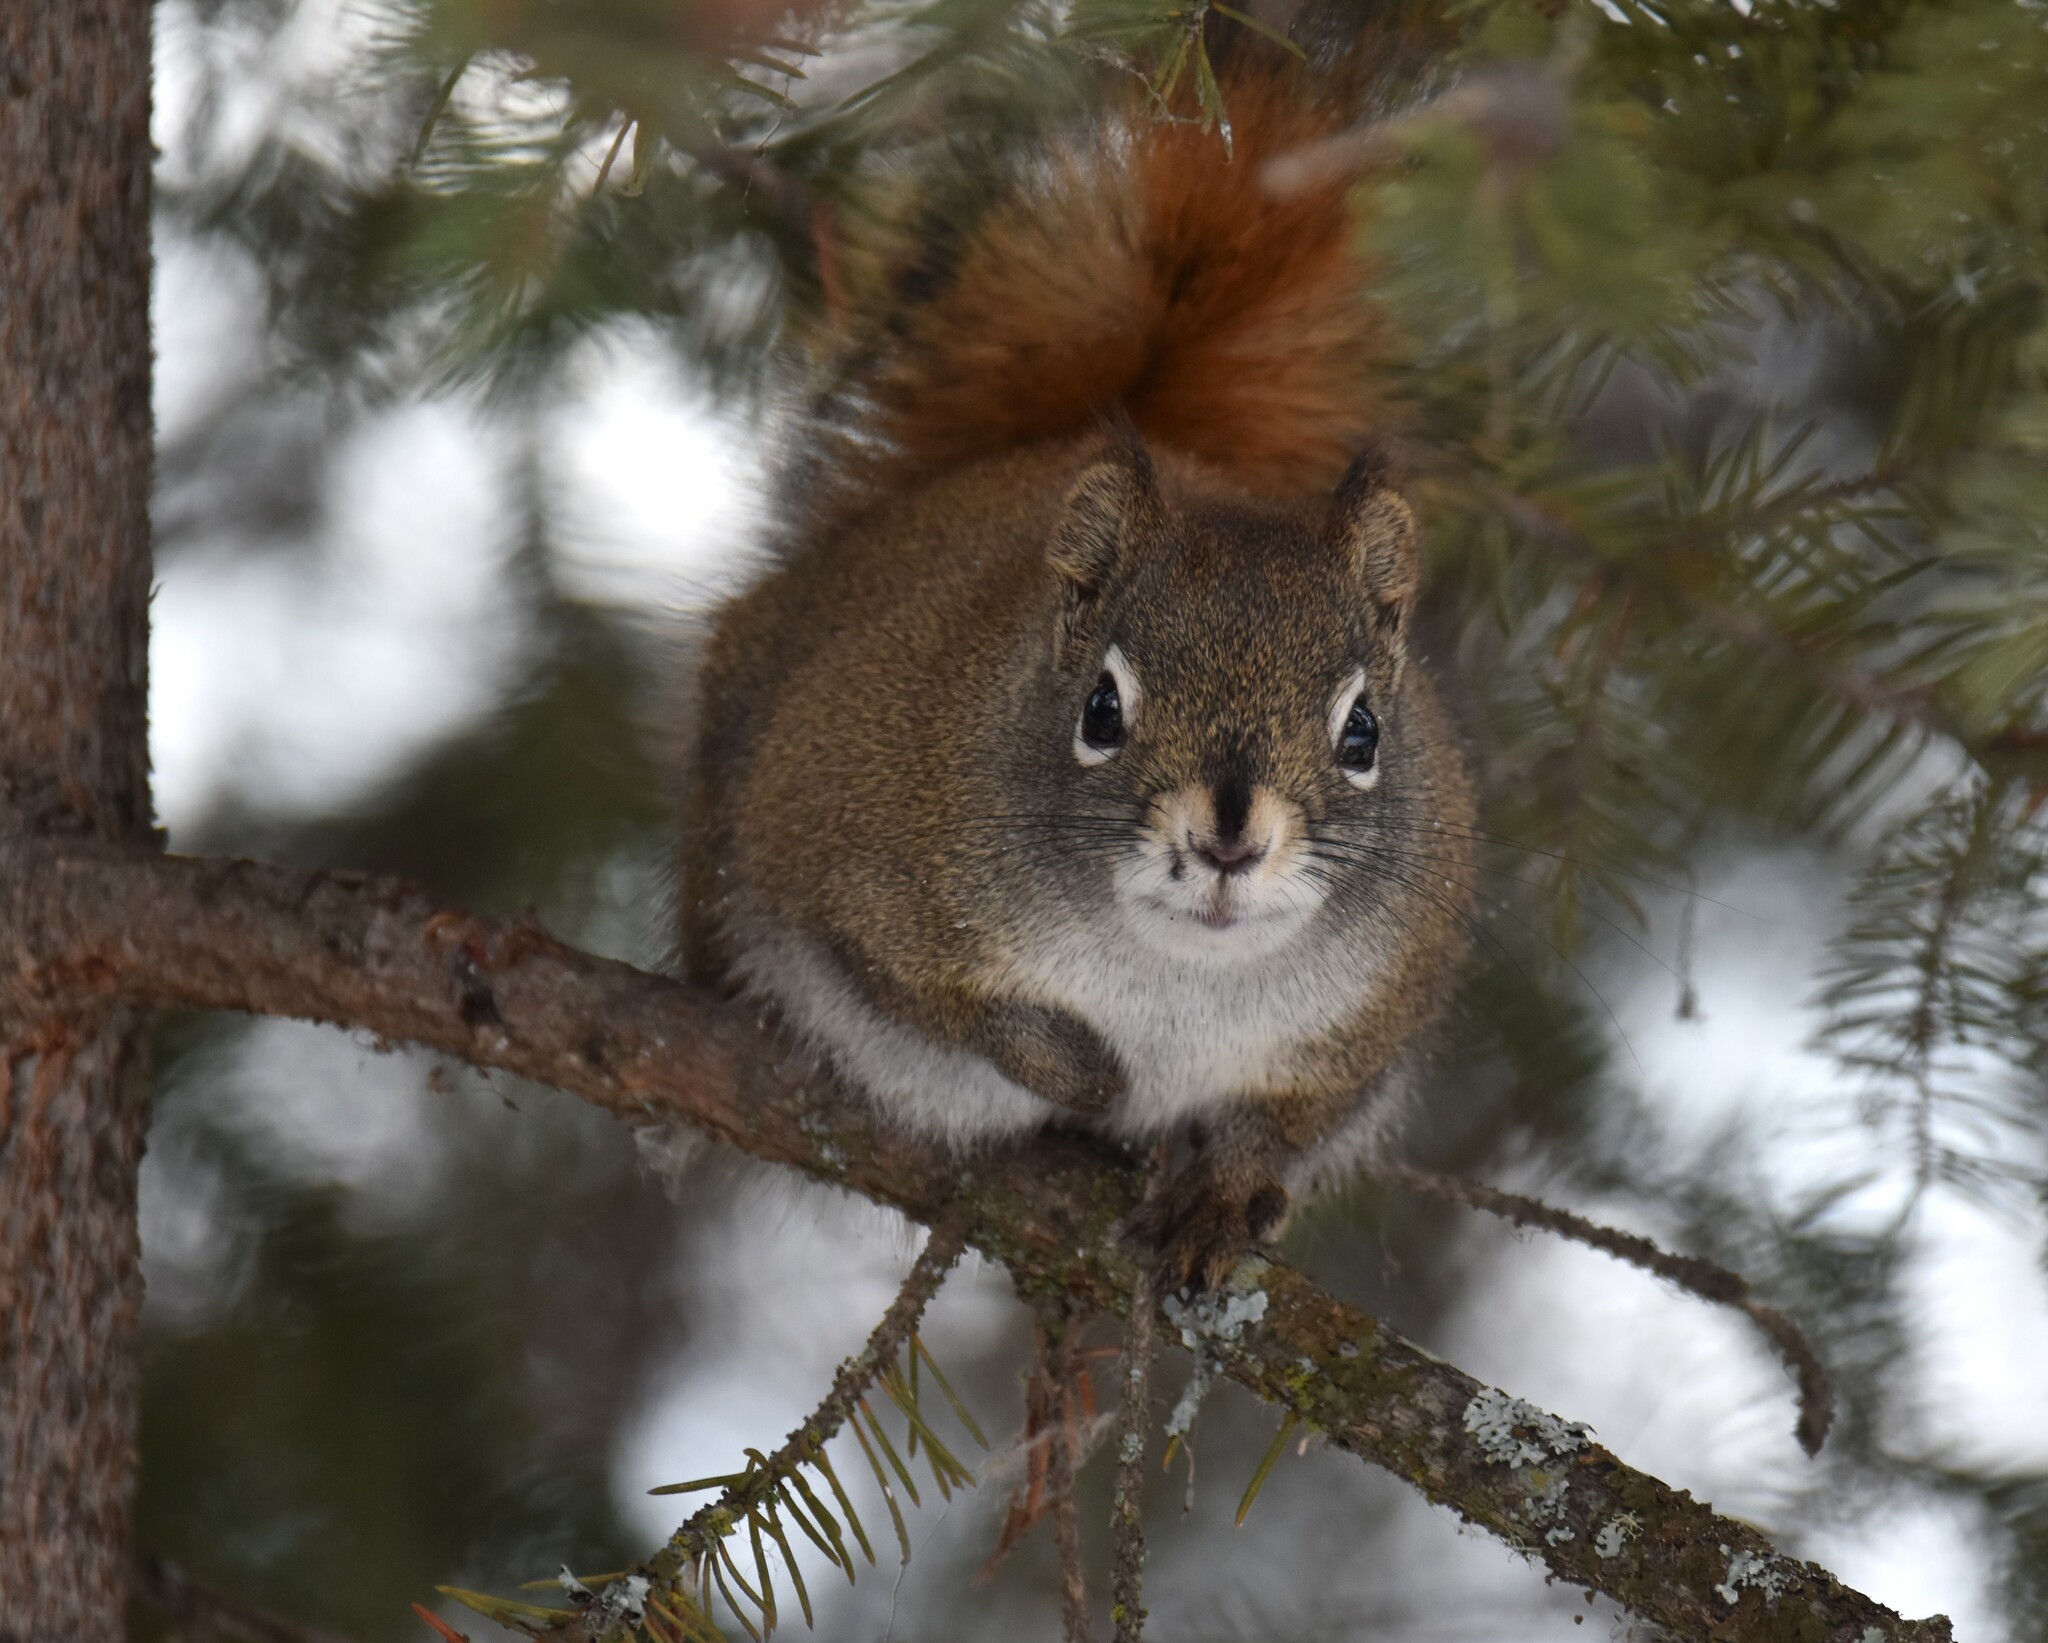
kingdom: Animalia
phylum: Chordata
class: Mammalia
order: Rodentia
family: Sciuridae
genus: Tamiasciurus
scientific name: Tamiasciurus hudsonicus
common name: Red squirrel
